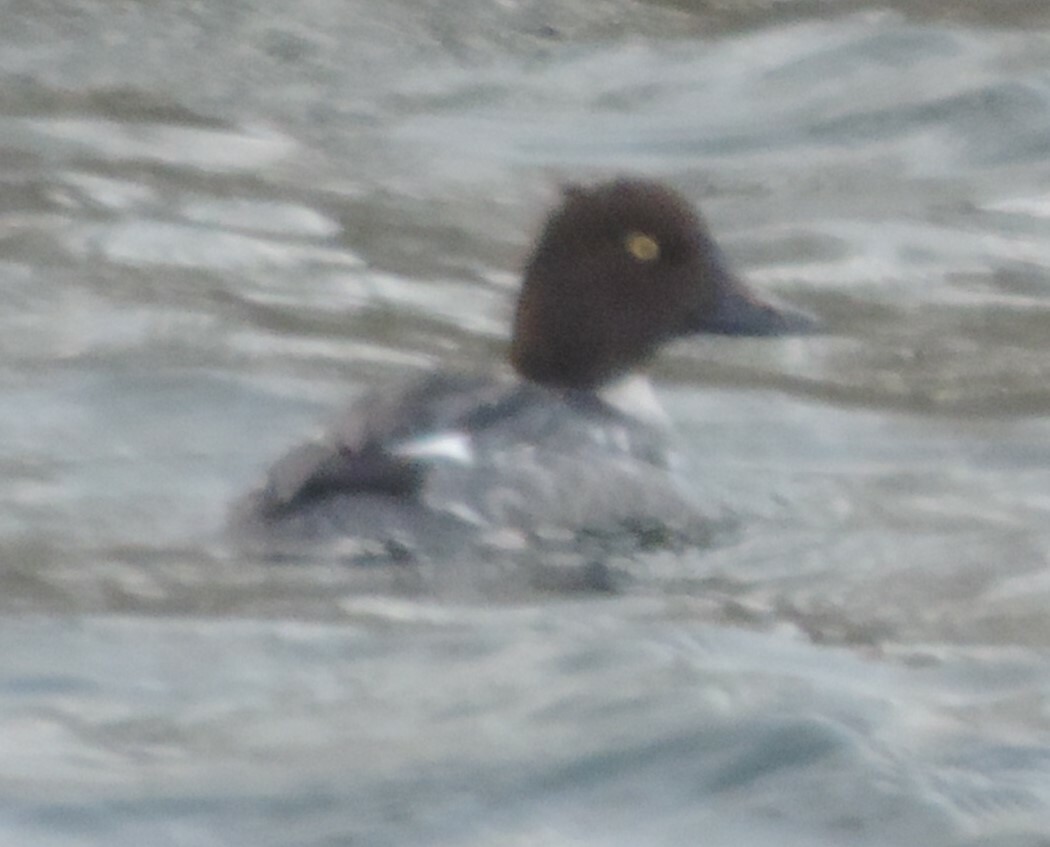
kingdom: Animalia
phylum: Chordata
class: Aves
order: Anseriformes
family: Anatidae
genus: Bucephala
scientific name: Bucephala clangula
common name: Common goldeneye
